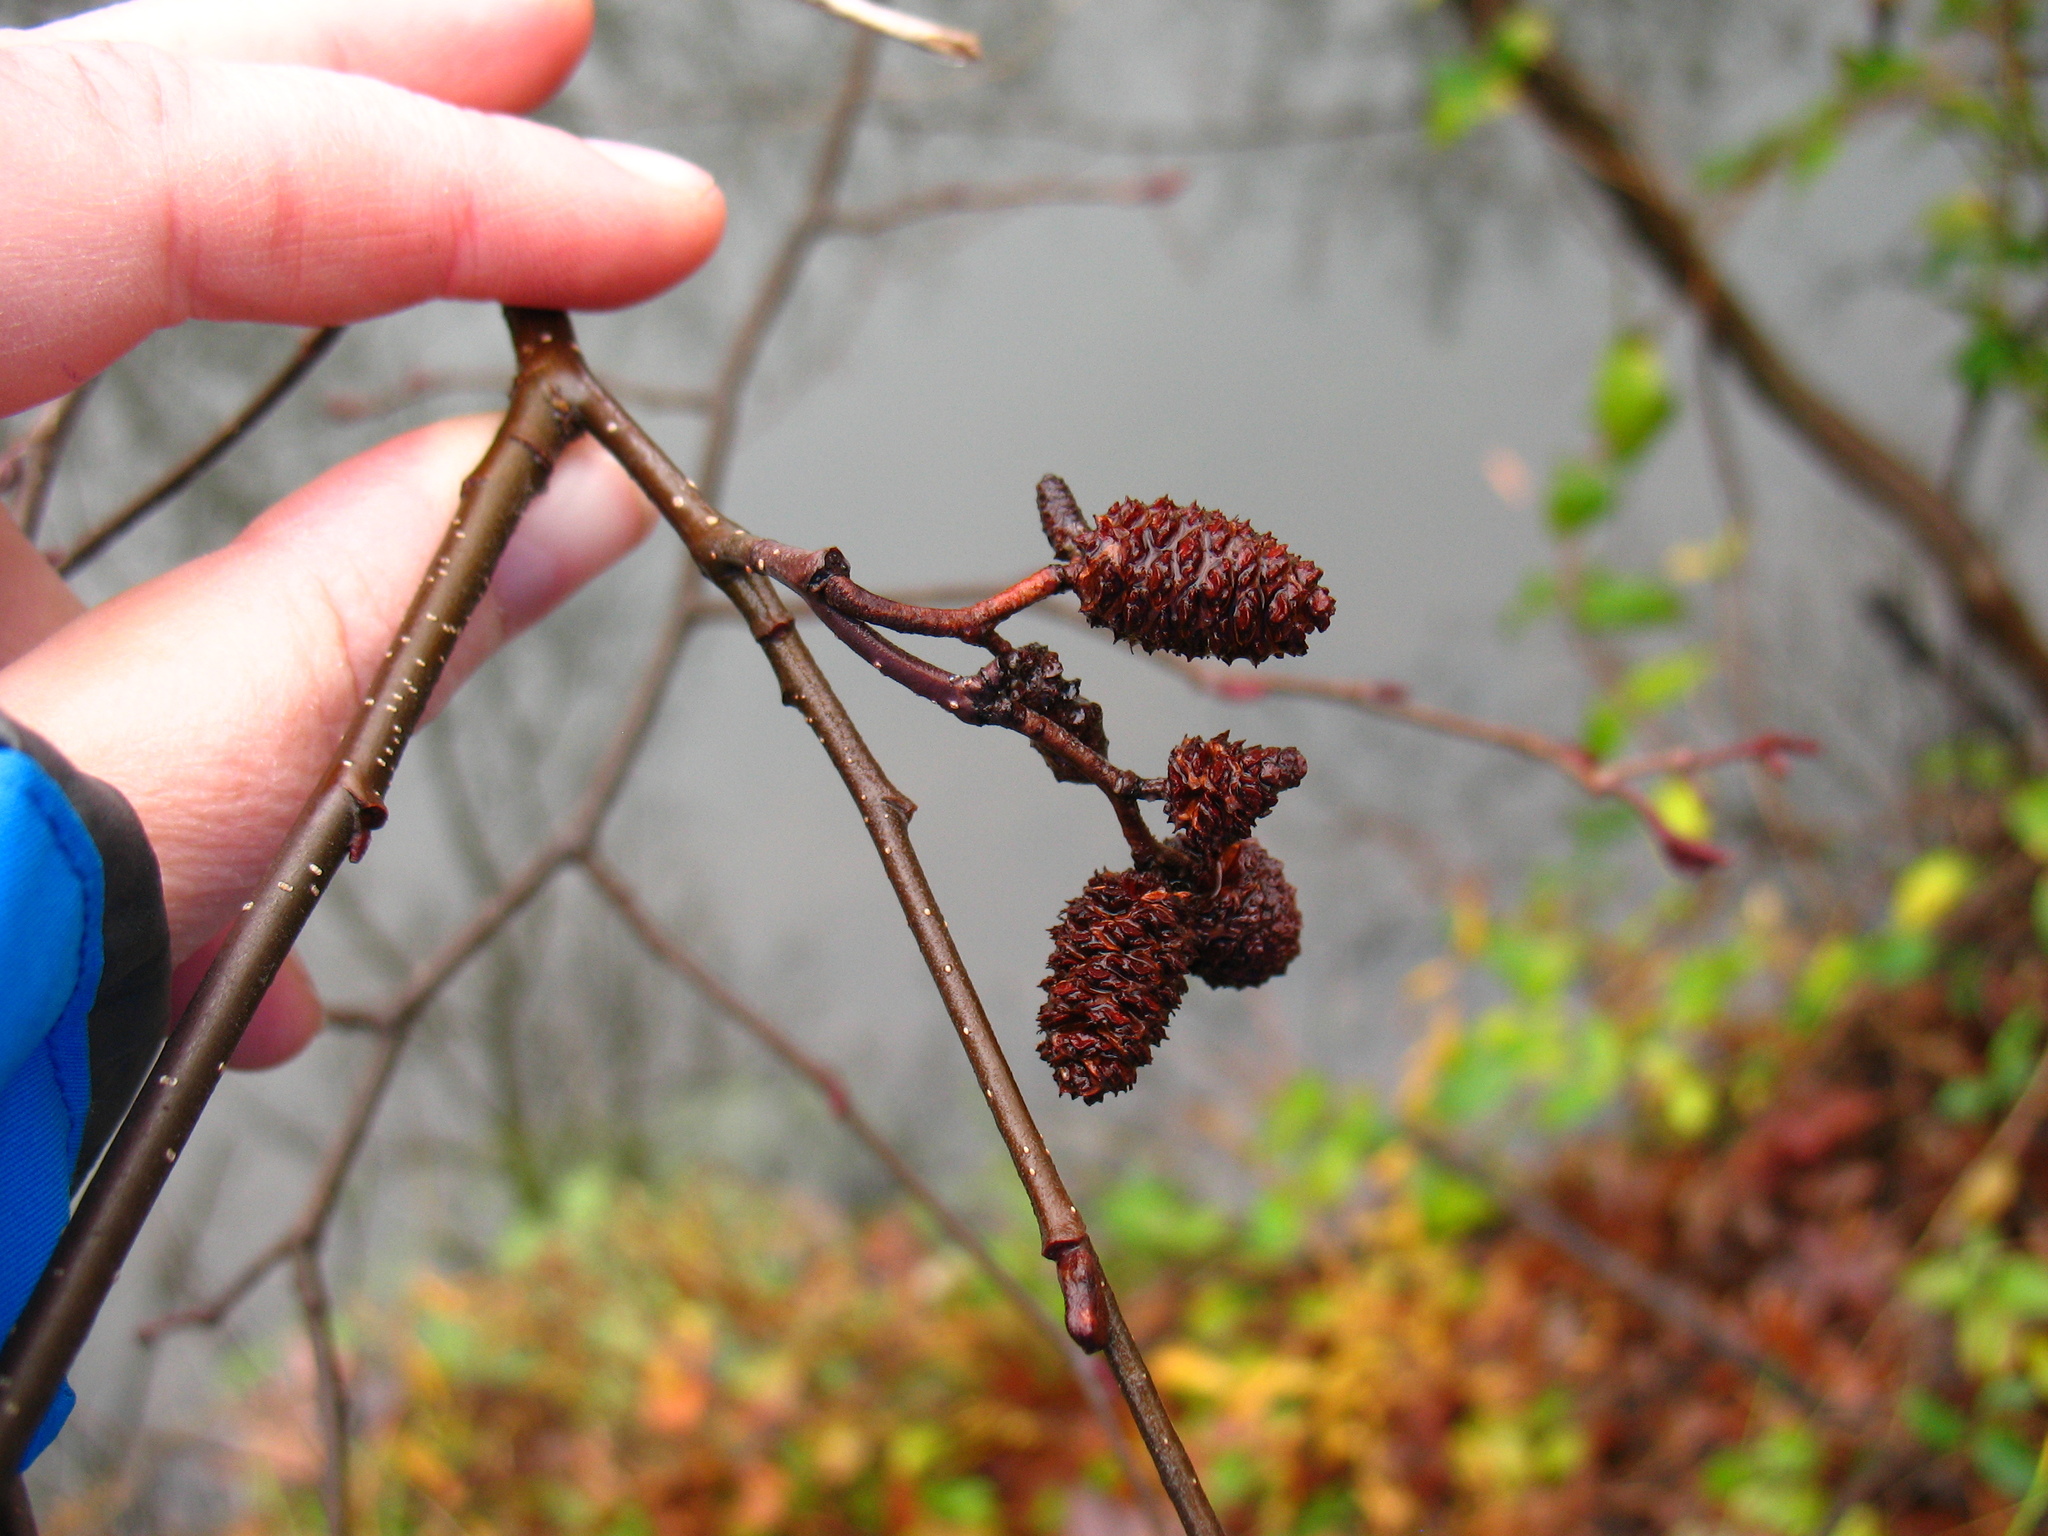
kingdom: Plantae
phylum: Tracheophyta
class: Magnoliopsida
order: Fagales
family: Betulaceae
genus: Alnus
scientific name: Alnus incana
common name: Grey alder
